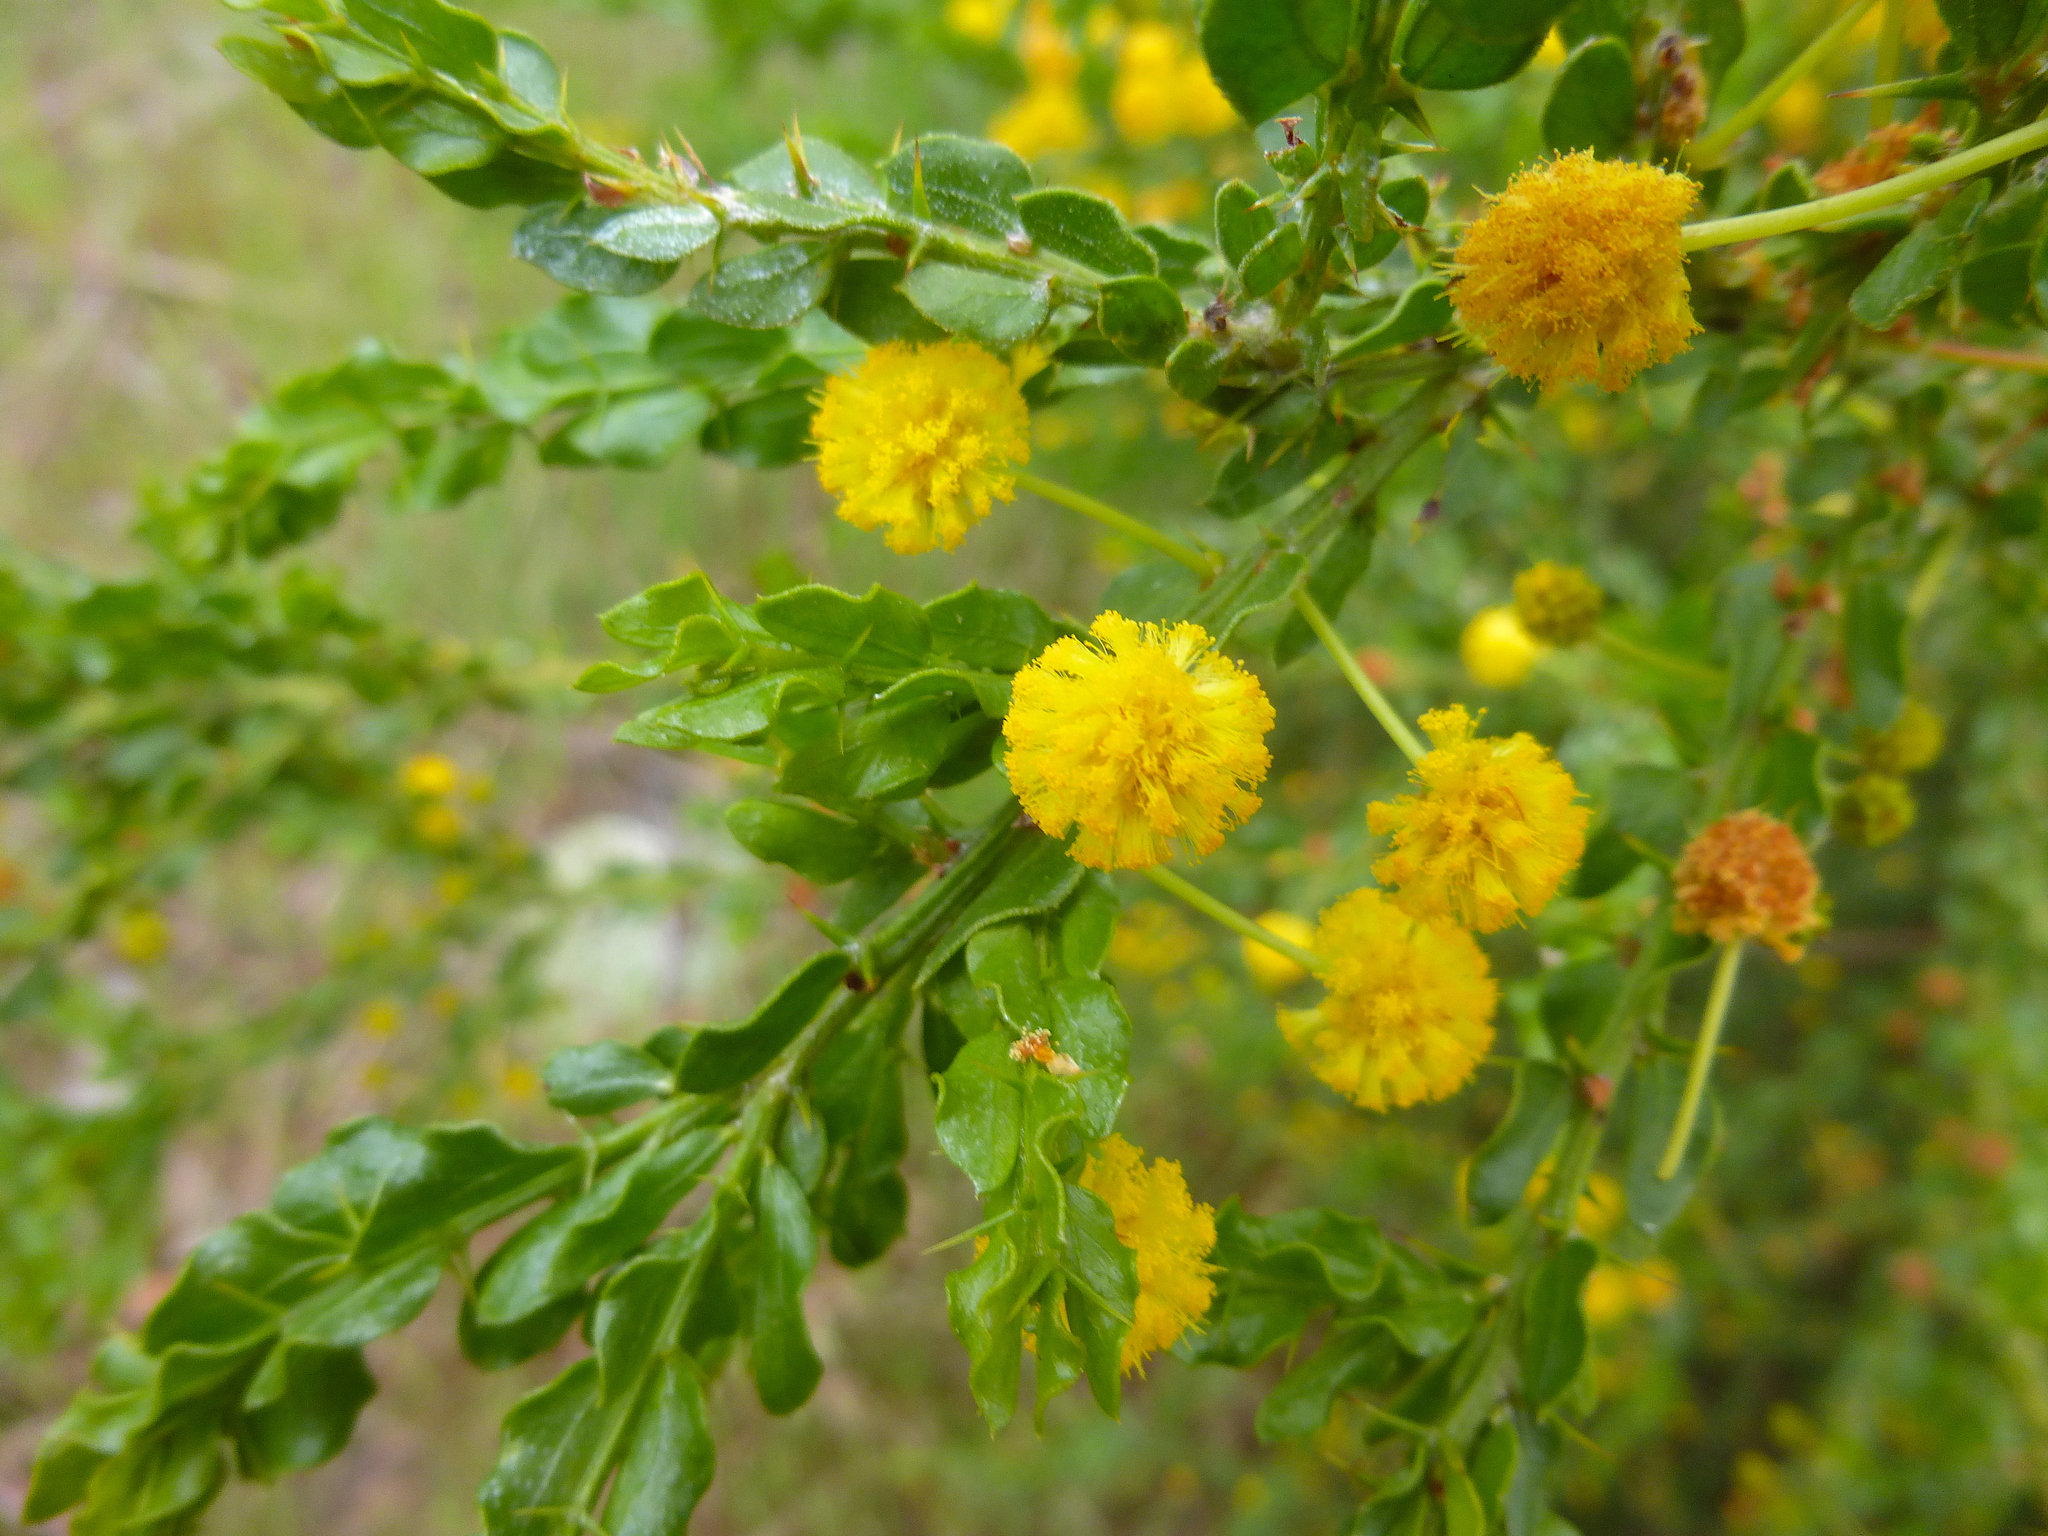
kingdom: Plantae
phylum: Tracheophyta
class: Magnoliopsida
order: Fabales
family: Fabaceae
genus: Acacia
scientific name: Acacia paradoxa
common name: Paradox acacia
